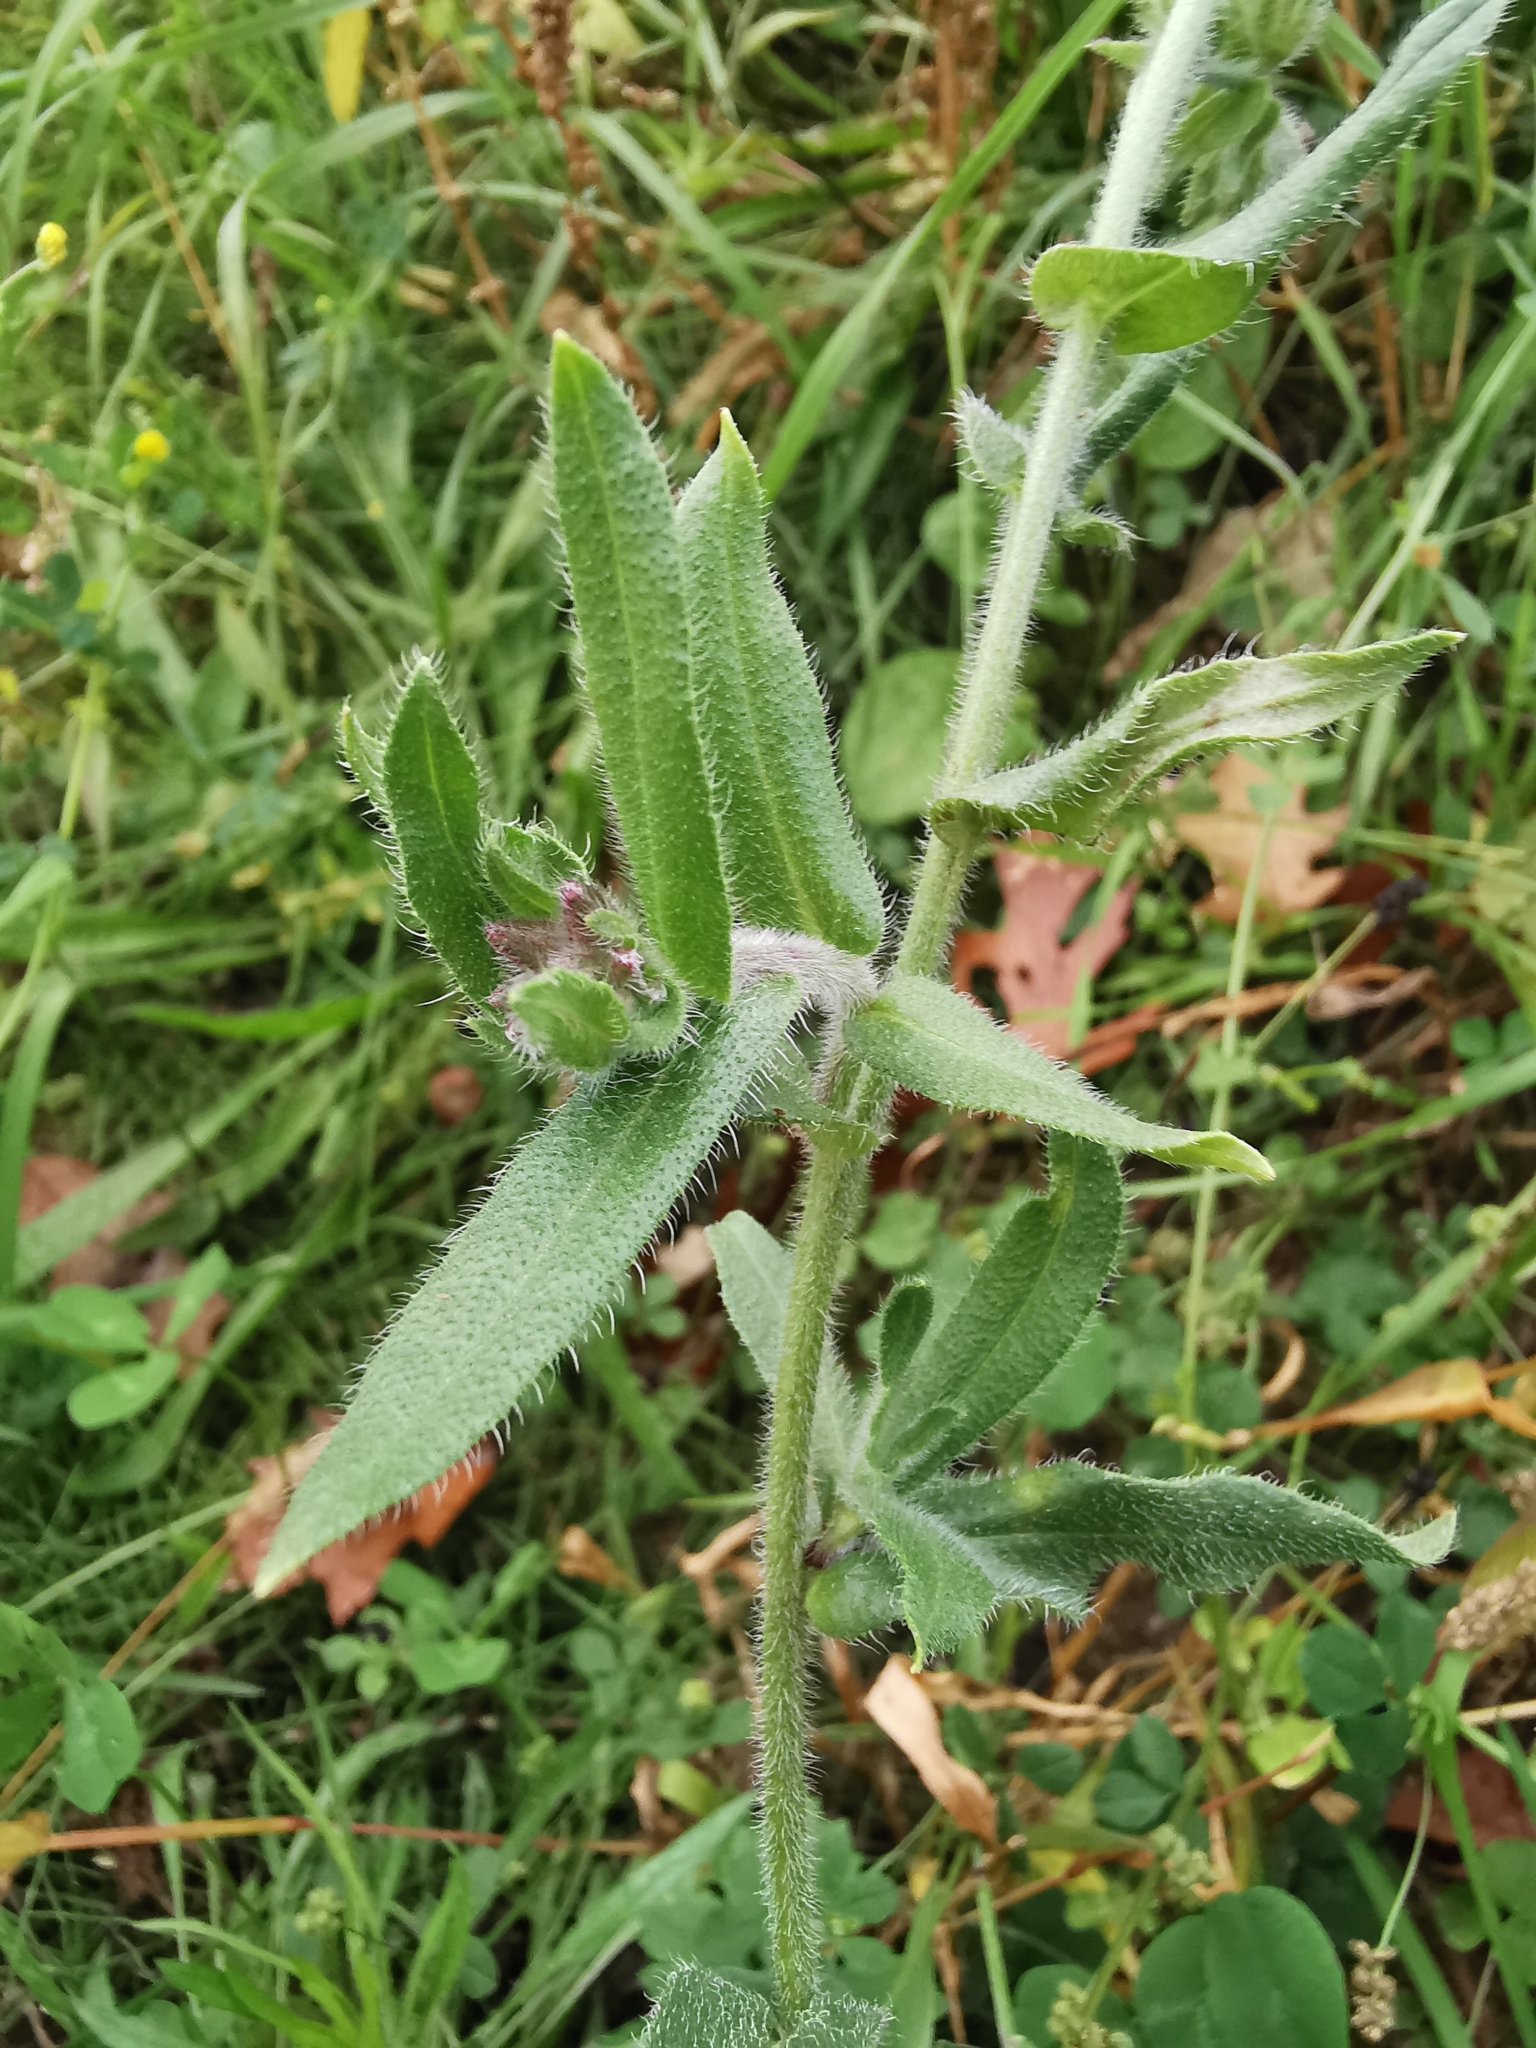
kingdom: Plantae
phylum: Tracheophyta
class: Magnoliopsida
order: Boraginales
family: Boraginaceae
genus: Anchusa
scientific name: Anchusa officinalis
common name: Alkanet
